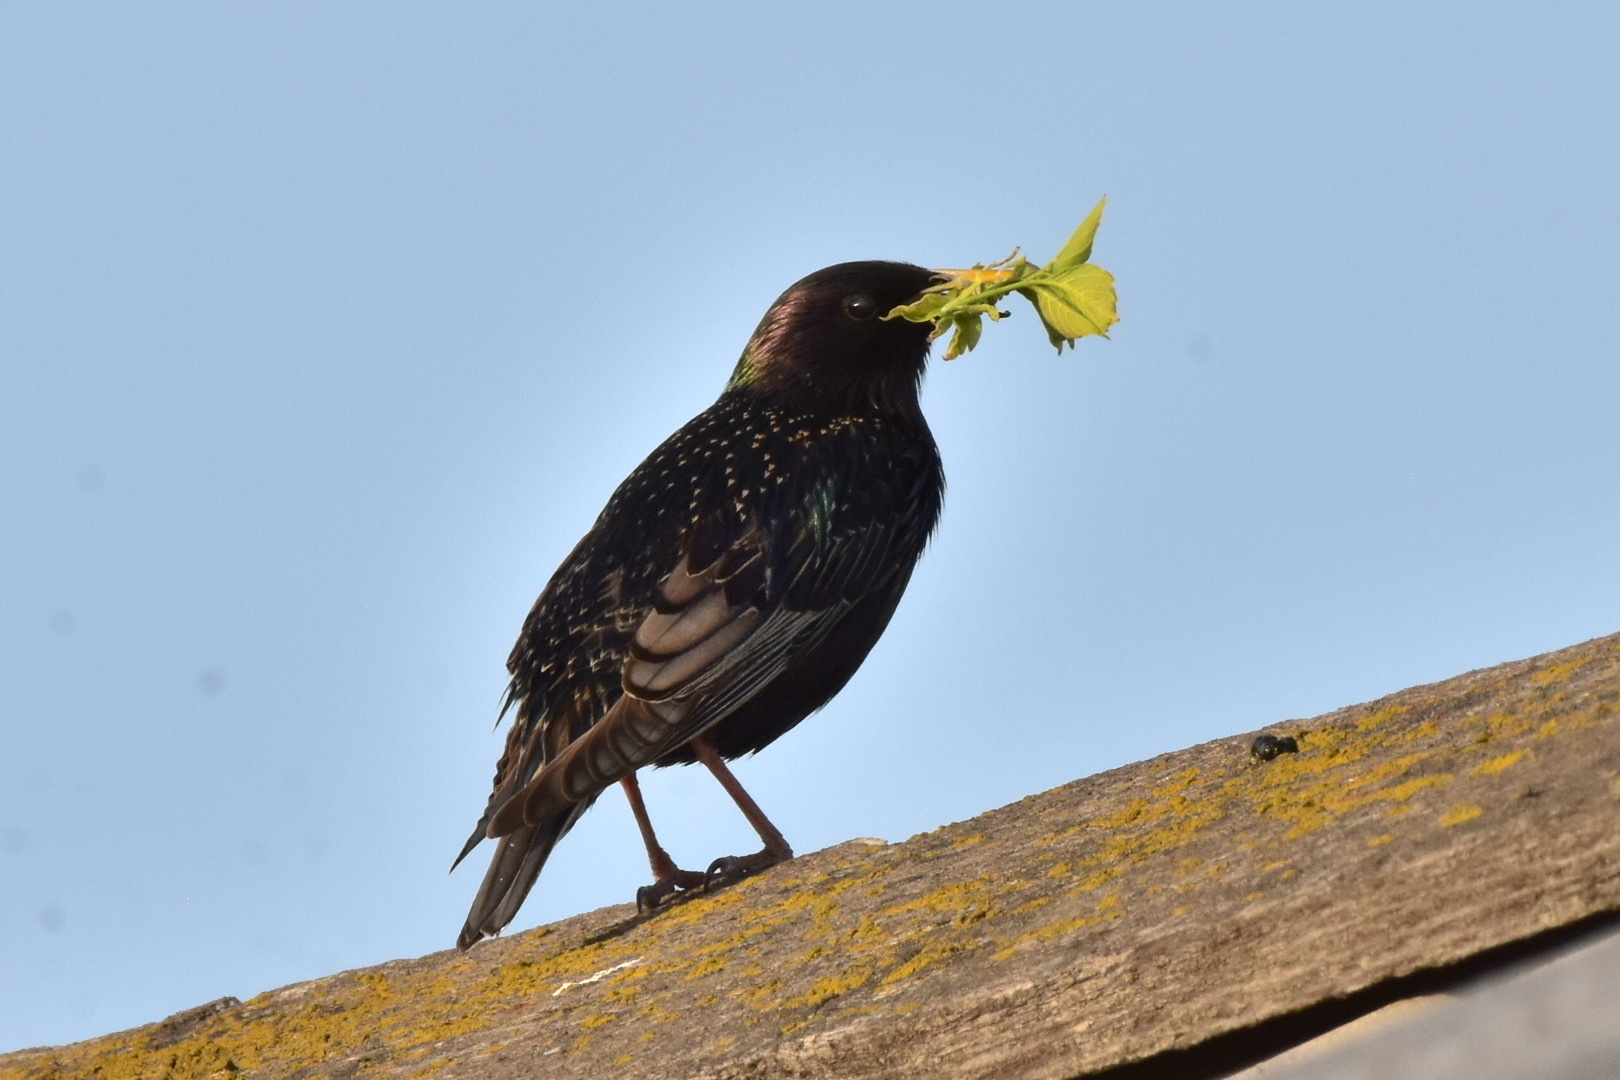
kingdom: Animalia
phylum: Chordata
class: Aves
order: Passeriformes
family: Sturnidae
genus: Sturnus
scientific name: Sturnus vulgaris
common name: Common starling
